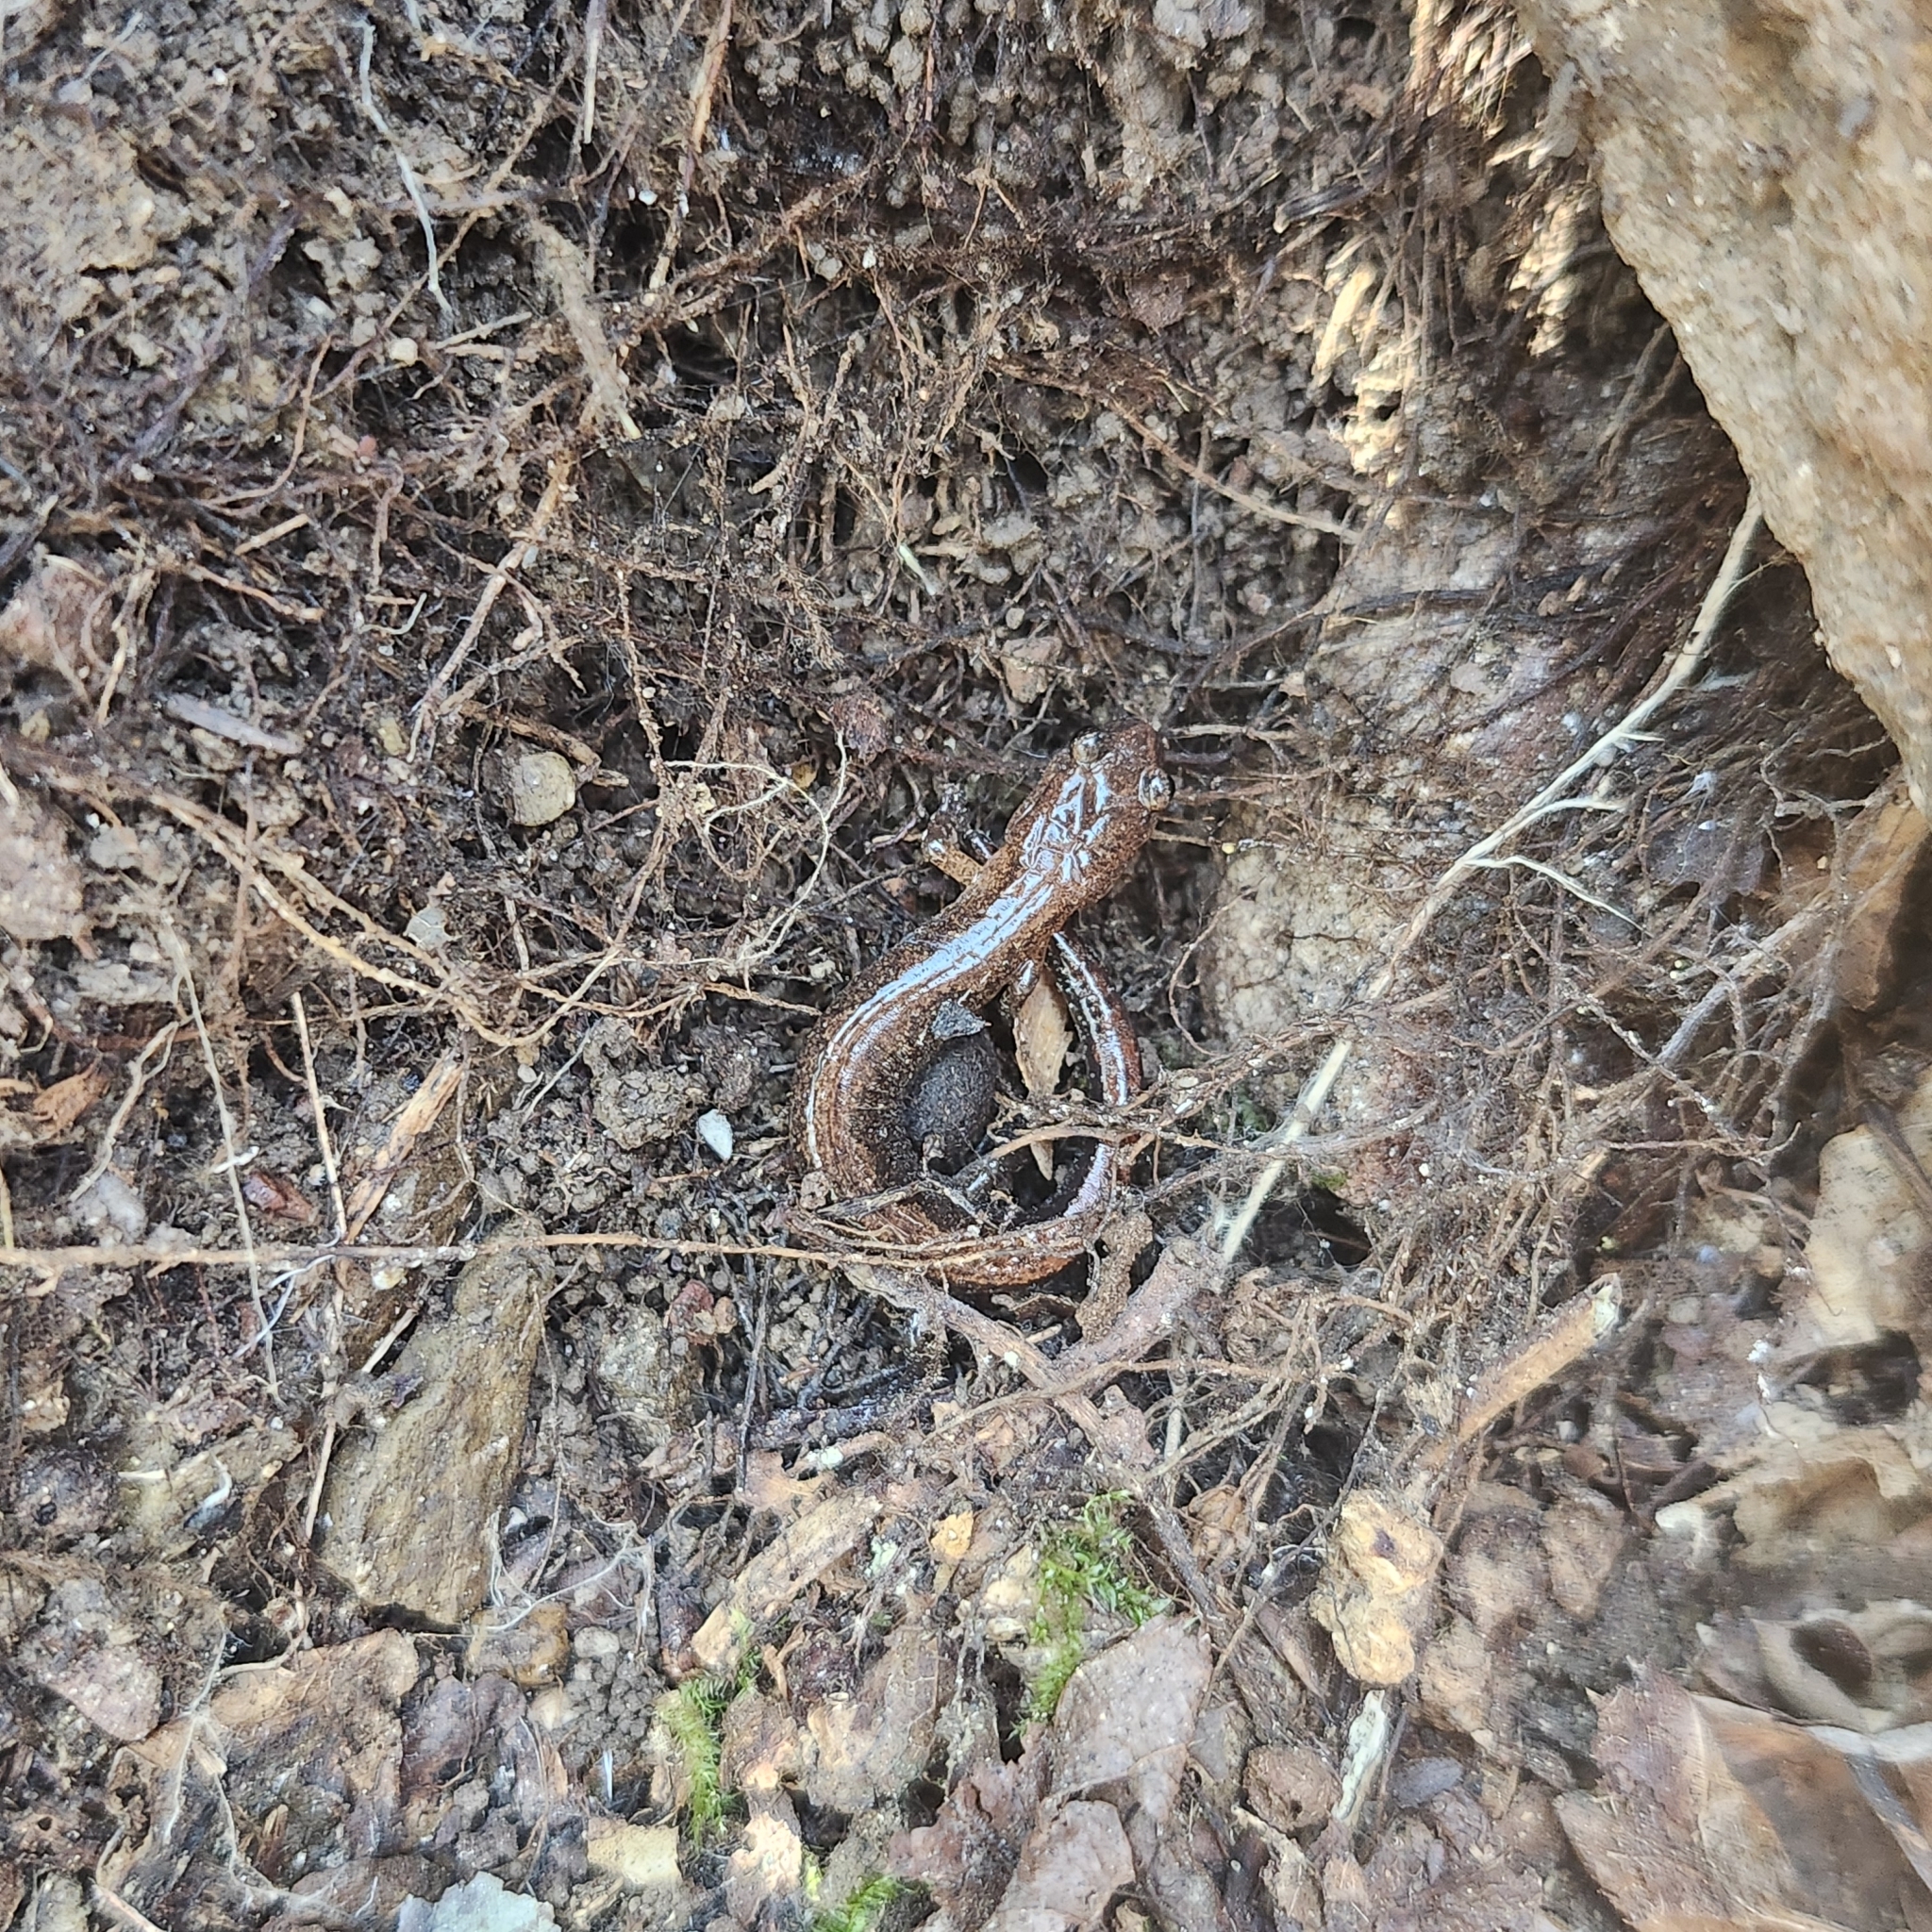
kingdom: Animalia
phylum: Chordata
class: Amphibia
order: Caudata
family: Plethodontidae
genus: Plethodon
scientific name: Plethodon websteri
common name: Webster's salamander
